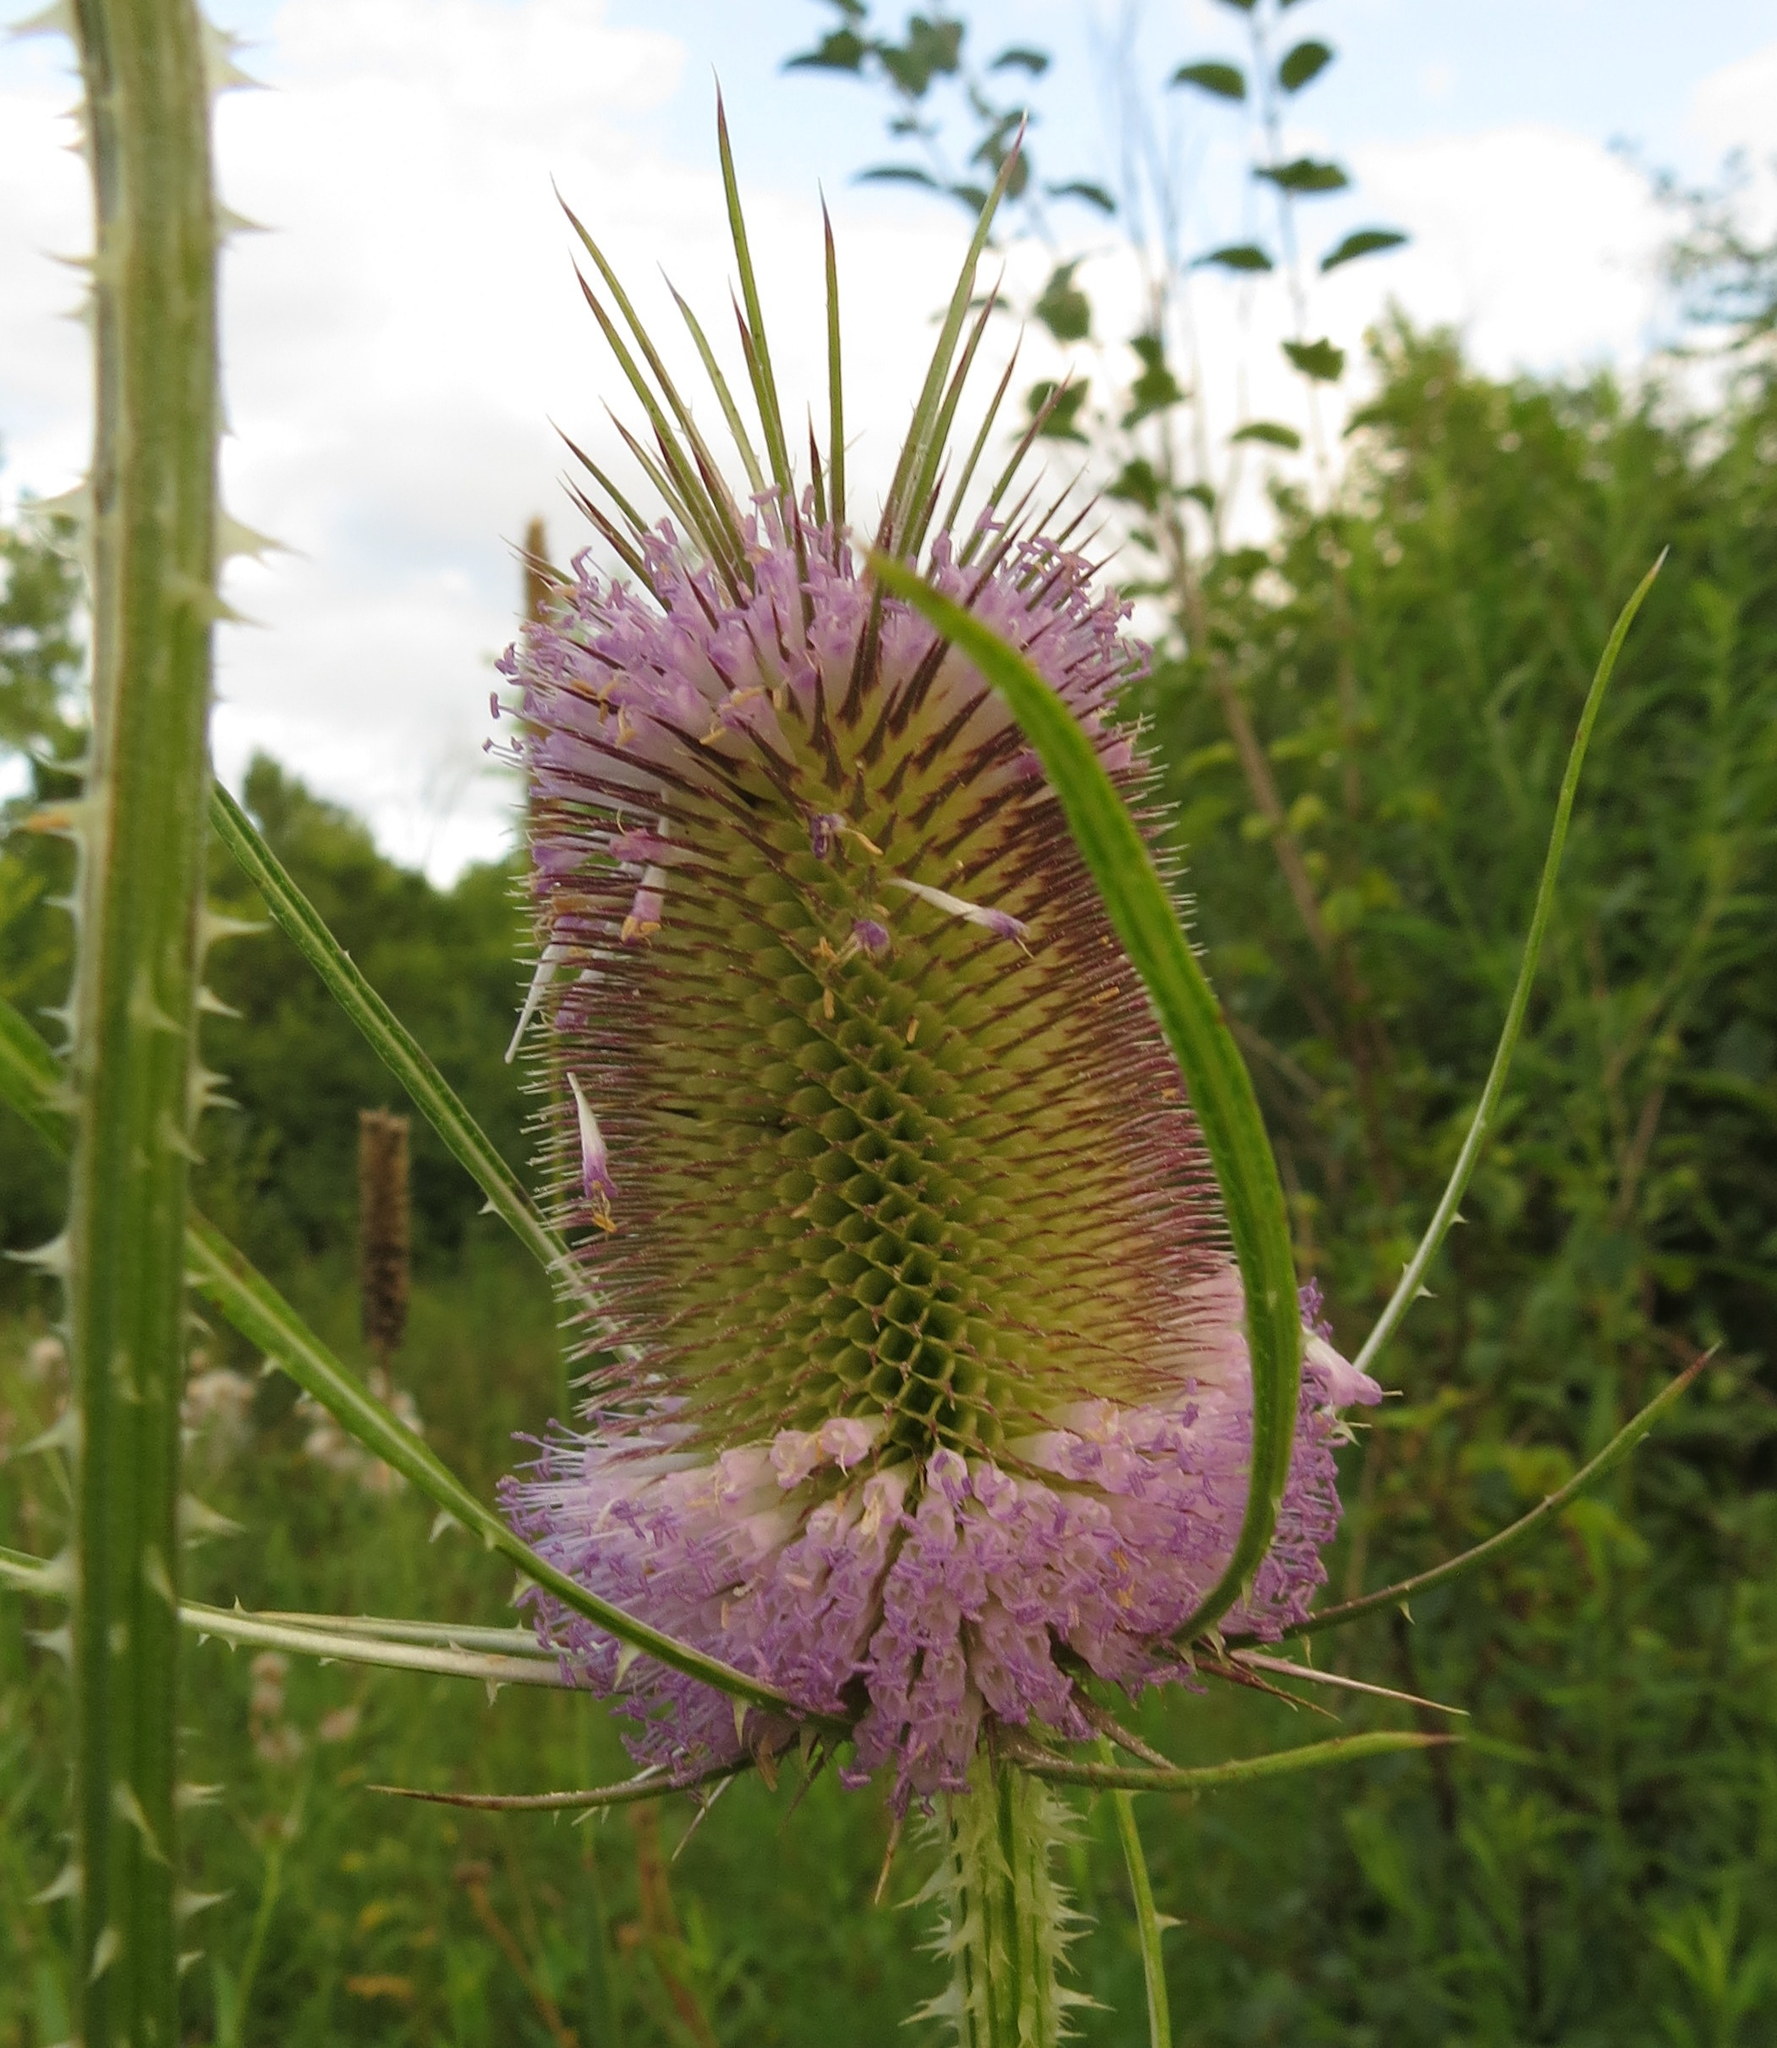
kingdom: Plantae
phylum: Tracheophyta
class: Magnoliopsida
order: Dipsacales
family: Caprifoliaceae
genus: Dipsacus
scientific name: Dipsacus fullonum
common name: Teasel
